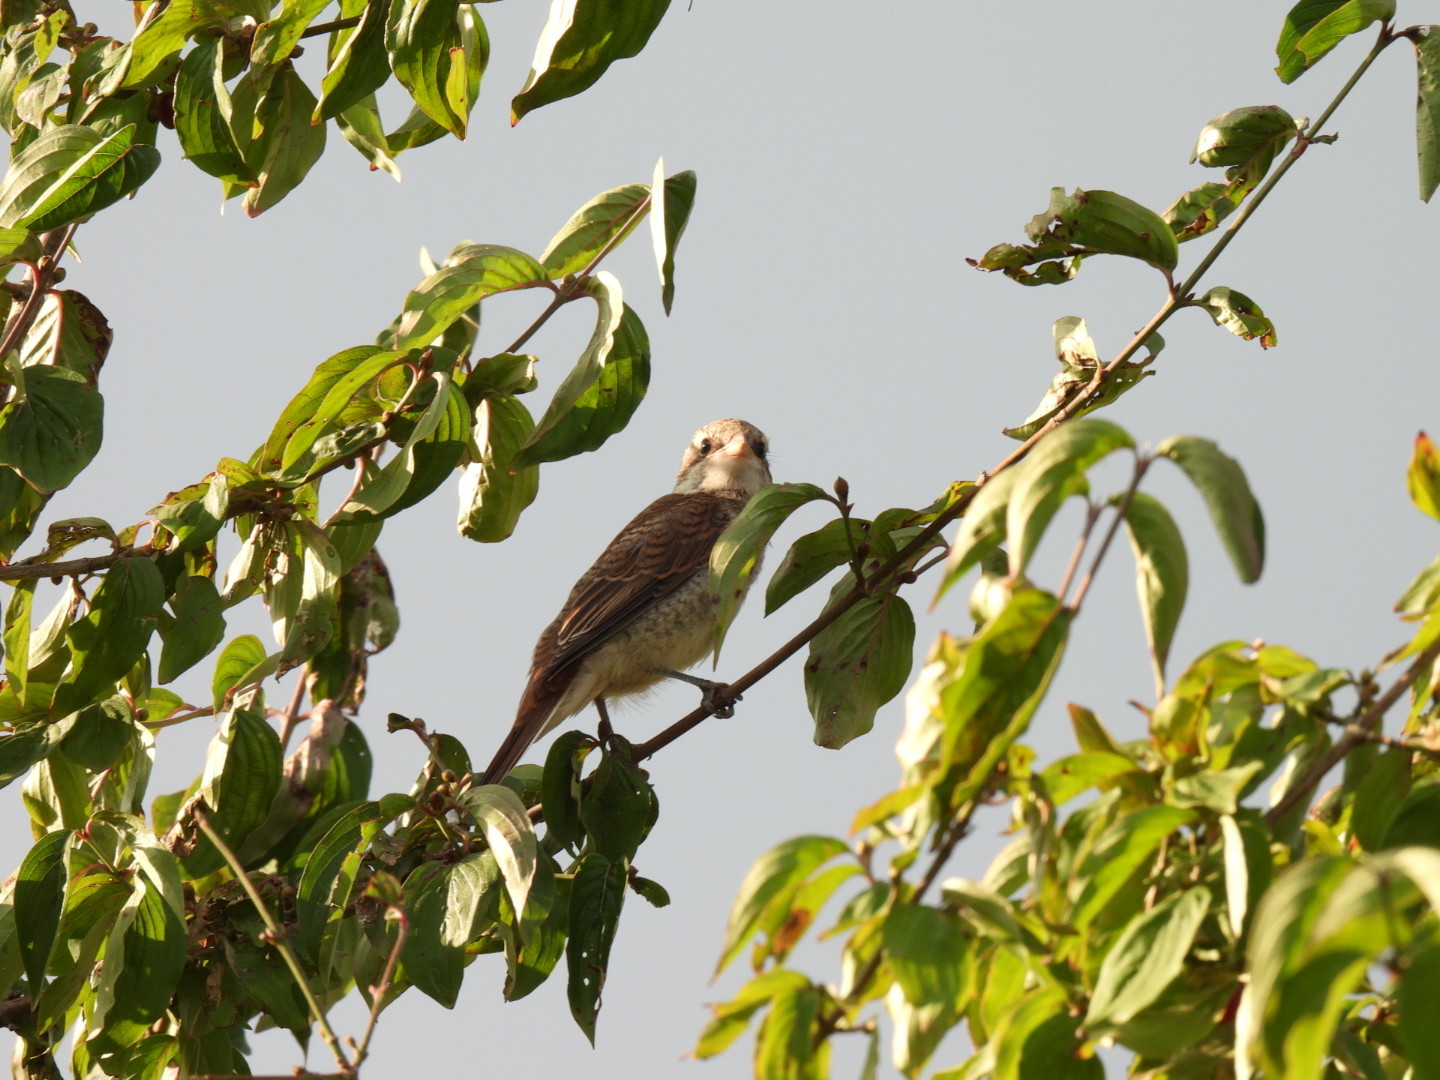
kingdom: Animalia
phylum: Chordata
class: Aves
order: Passeriformes
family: Laniidae
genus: Lanius
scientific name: Lanius collurio
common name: Red-backed shrike
